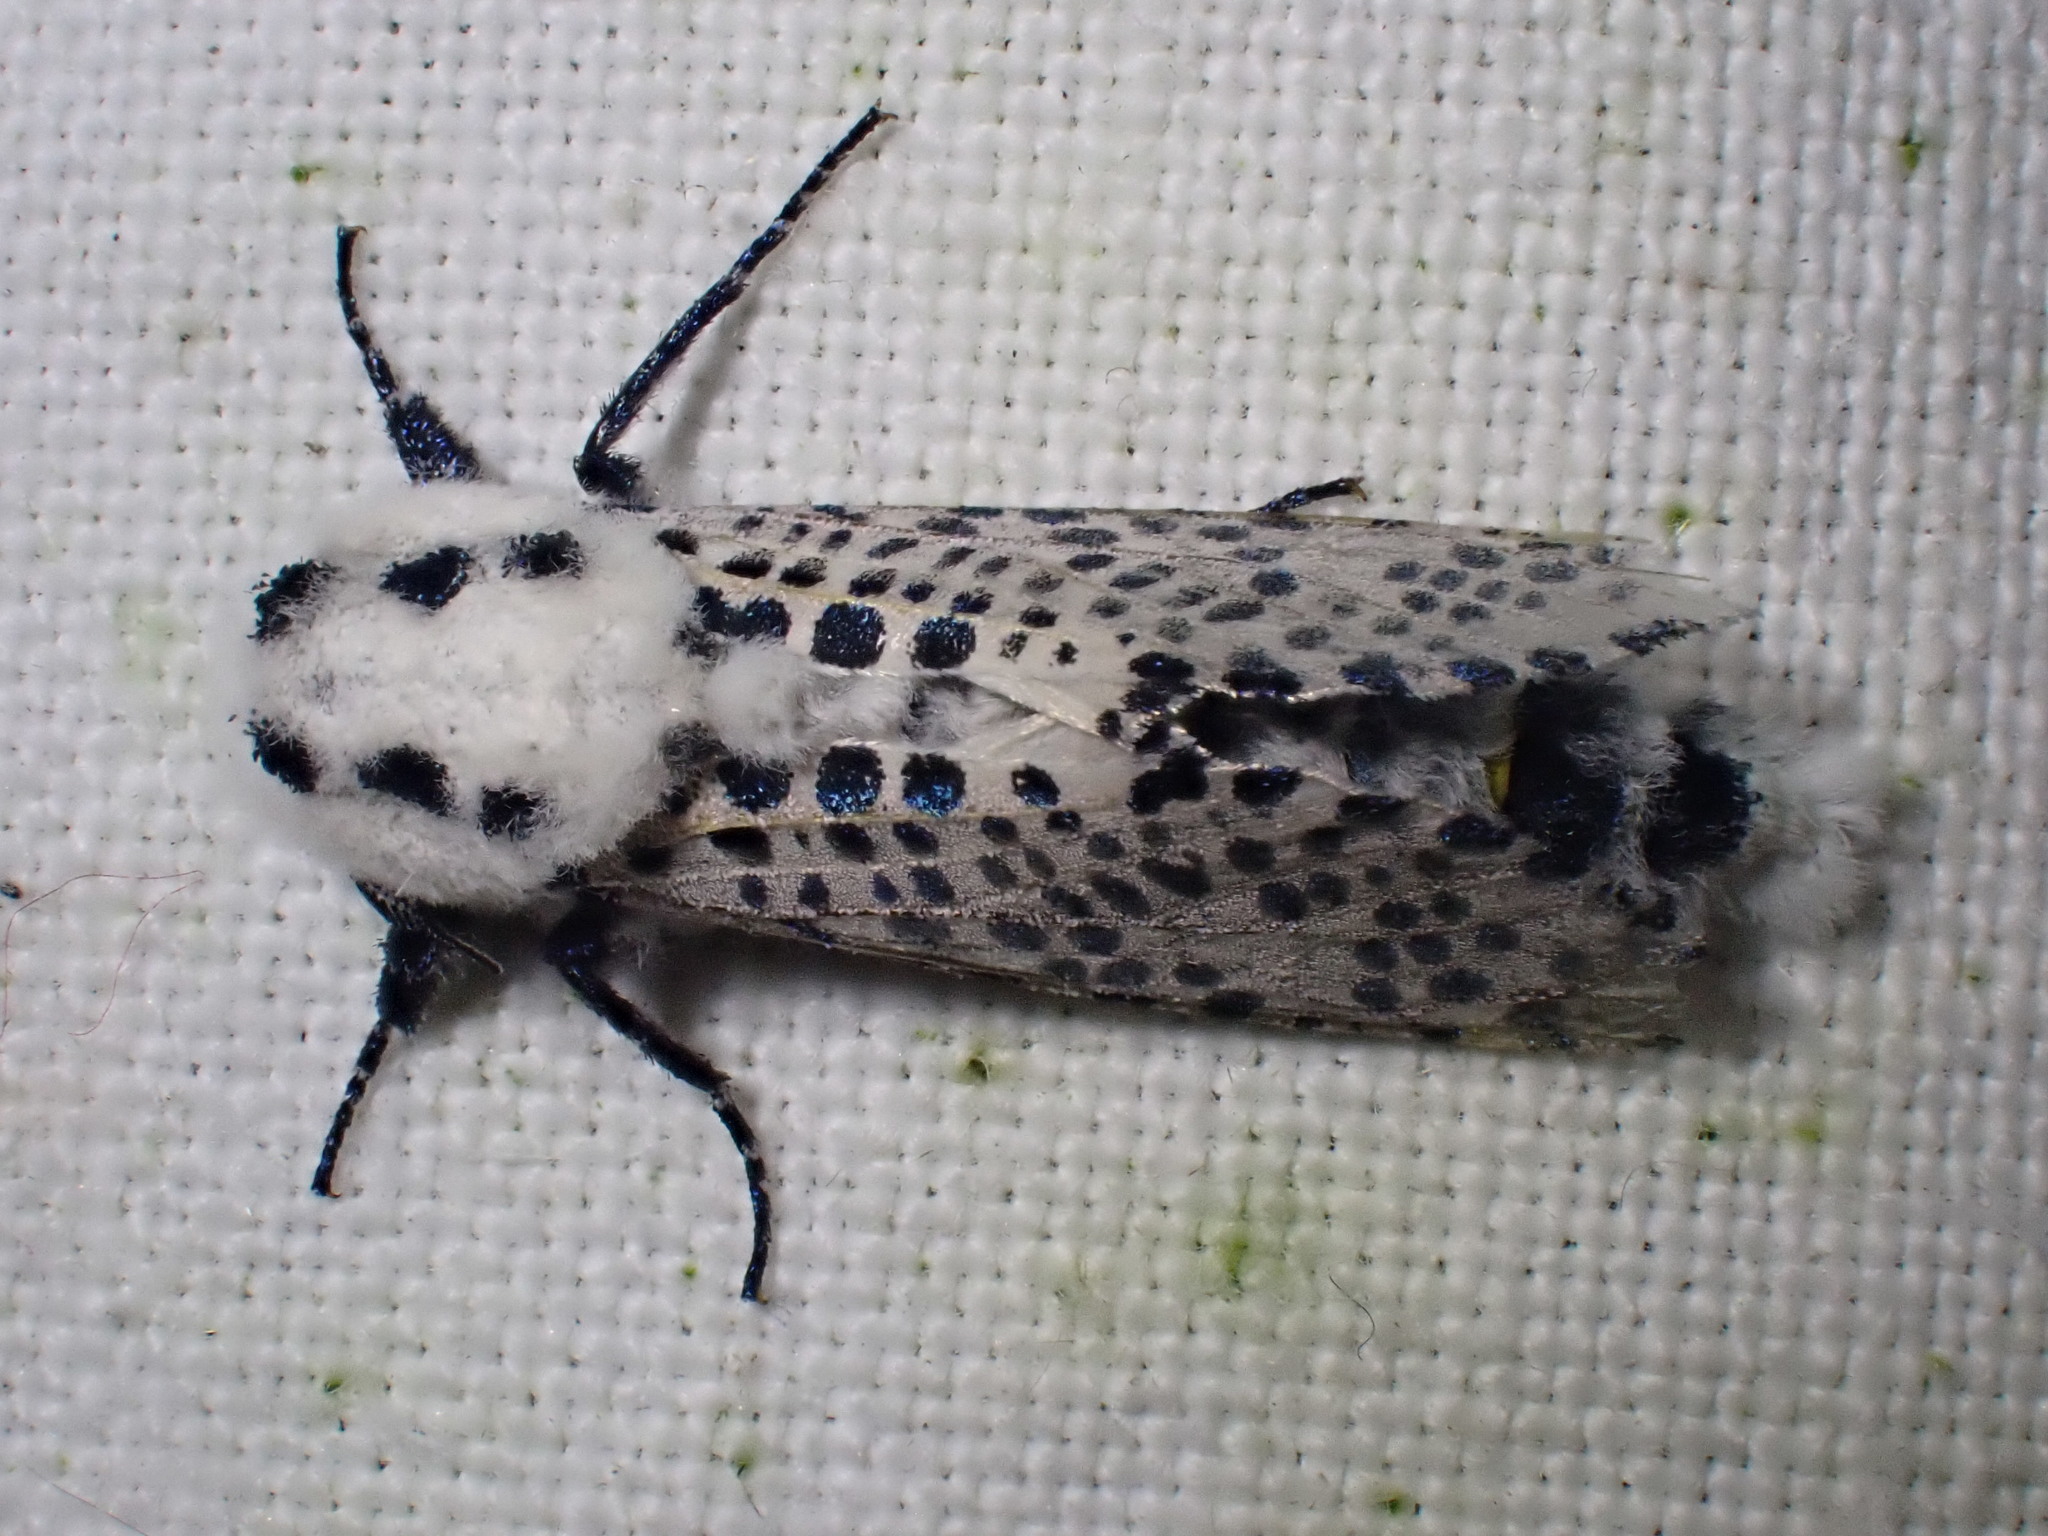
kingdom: Animalia
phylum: Arthropoda
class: Insecta
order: Lepidoptera
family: Cossidae
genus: Zeuzera
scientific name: Zeuzera pyrina
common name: Leopard moth
